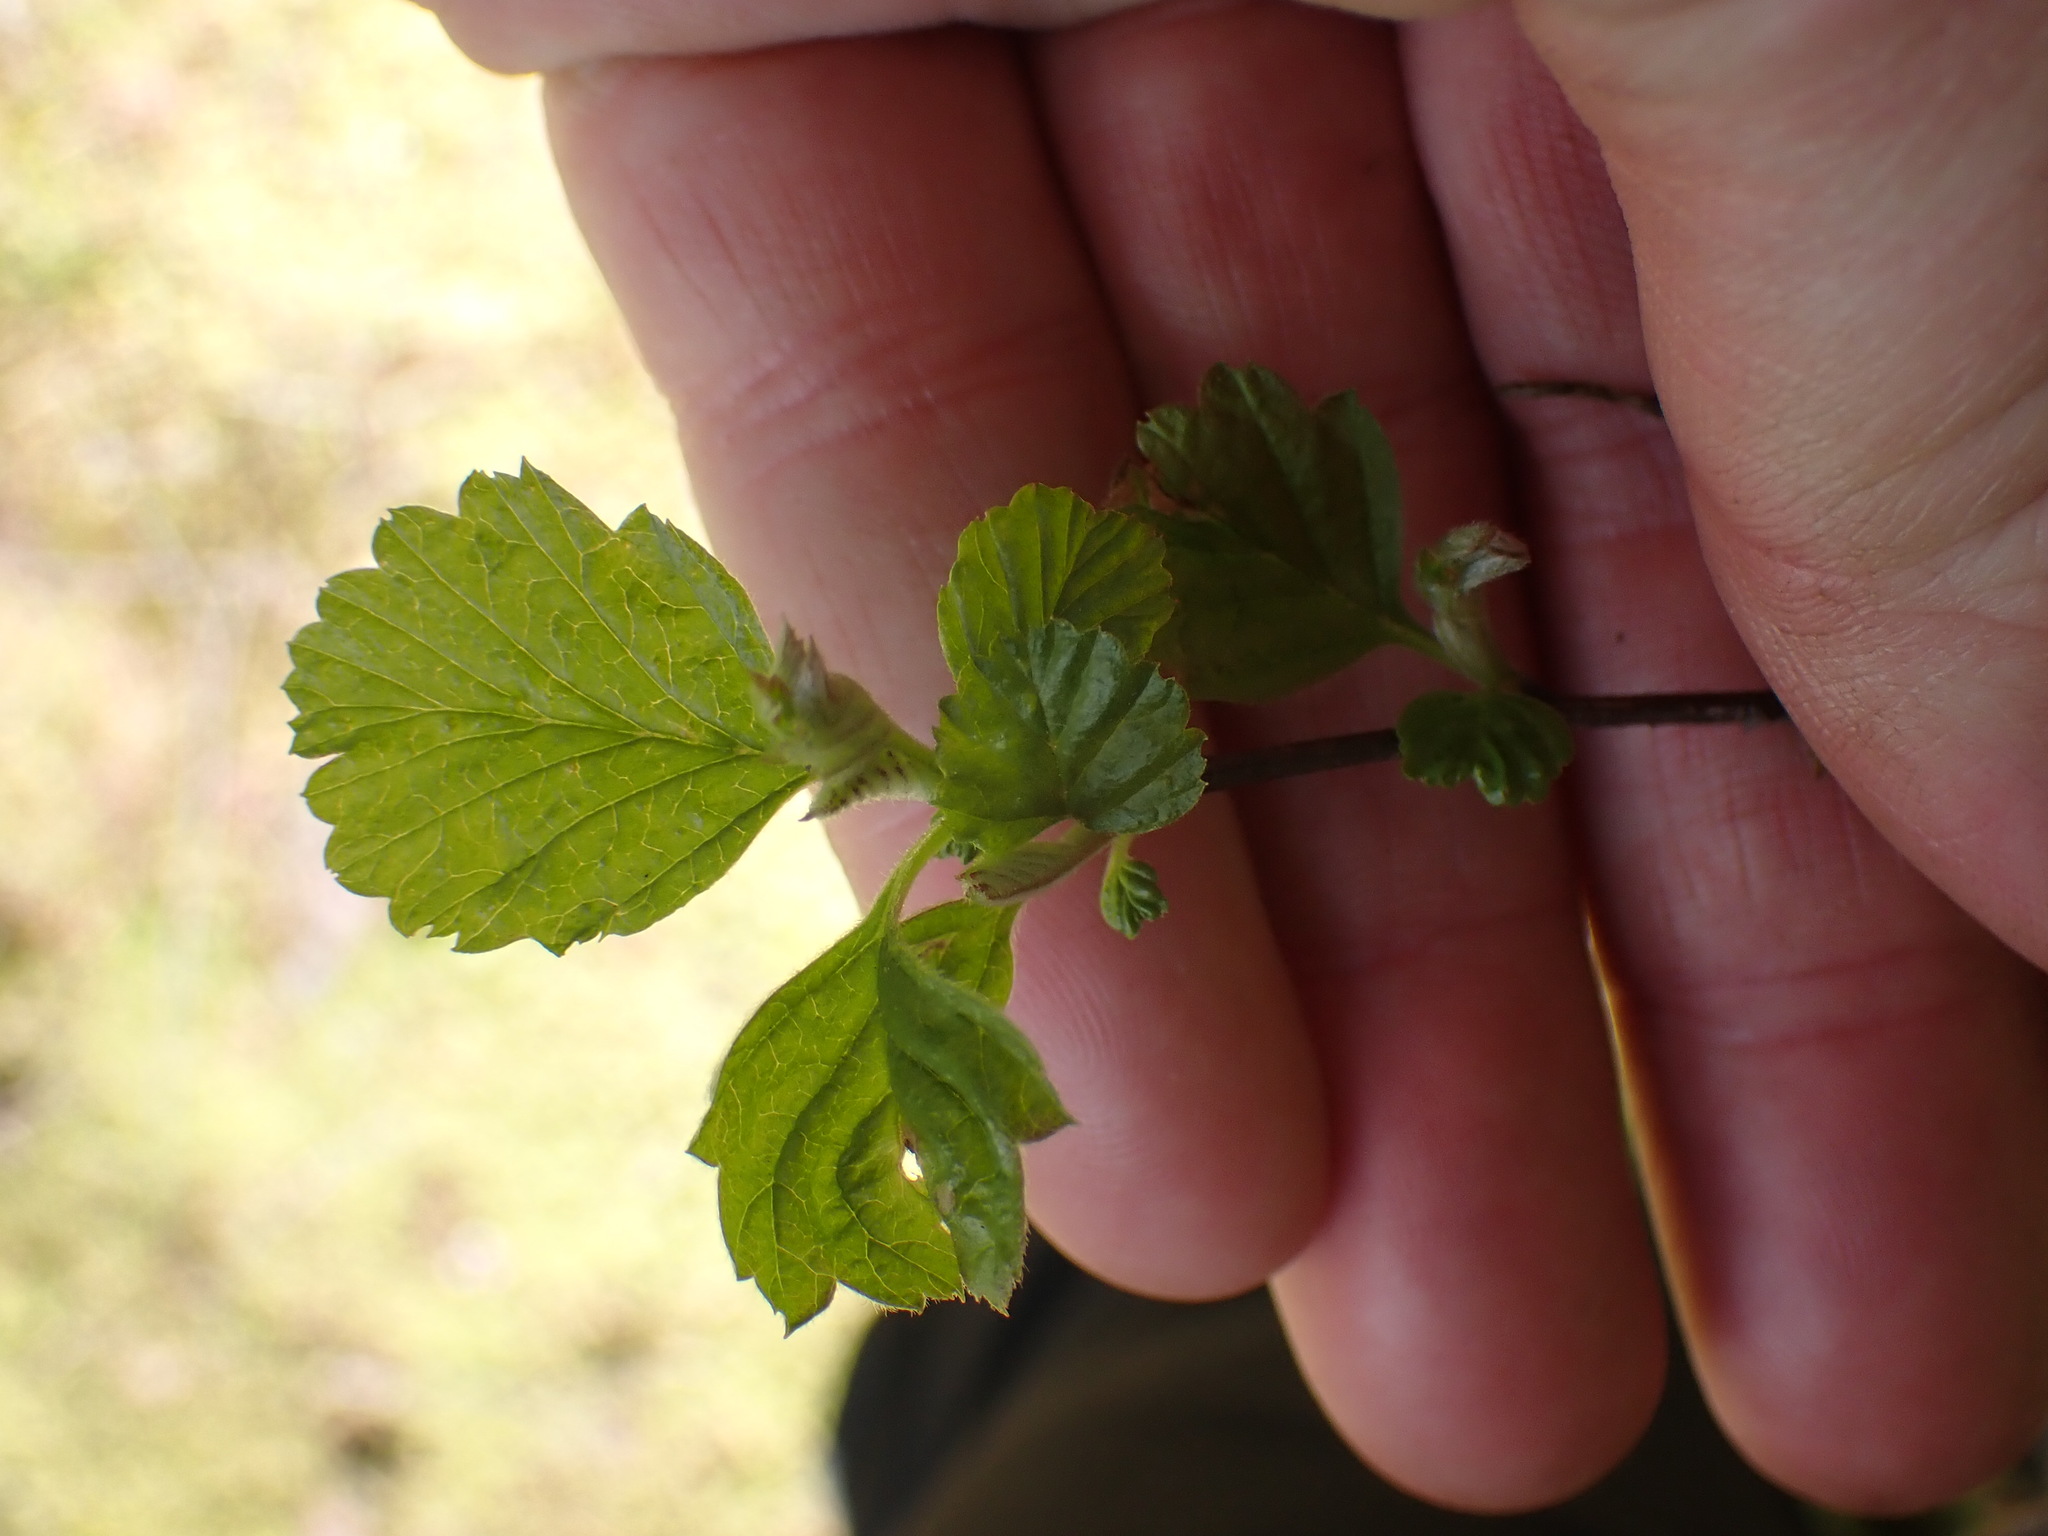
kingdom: Plantae
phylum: Tracheophyta
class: Magnoliopsida
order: Rosales
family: Rosaceae
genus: Holodiscus
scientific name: Holodiscus discolor
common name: Oceanspray
